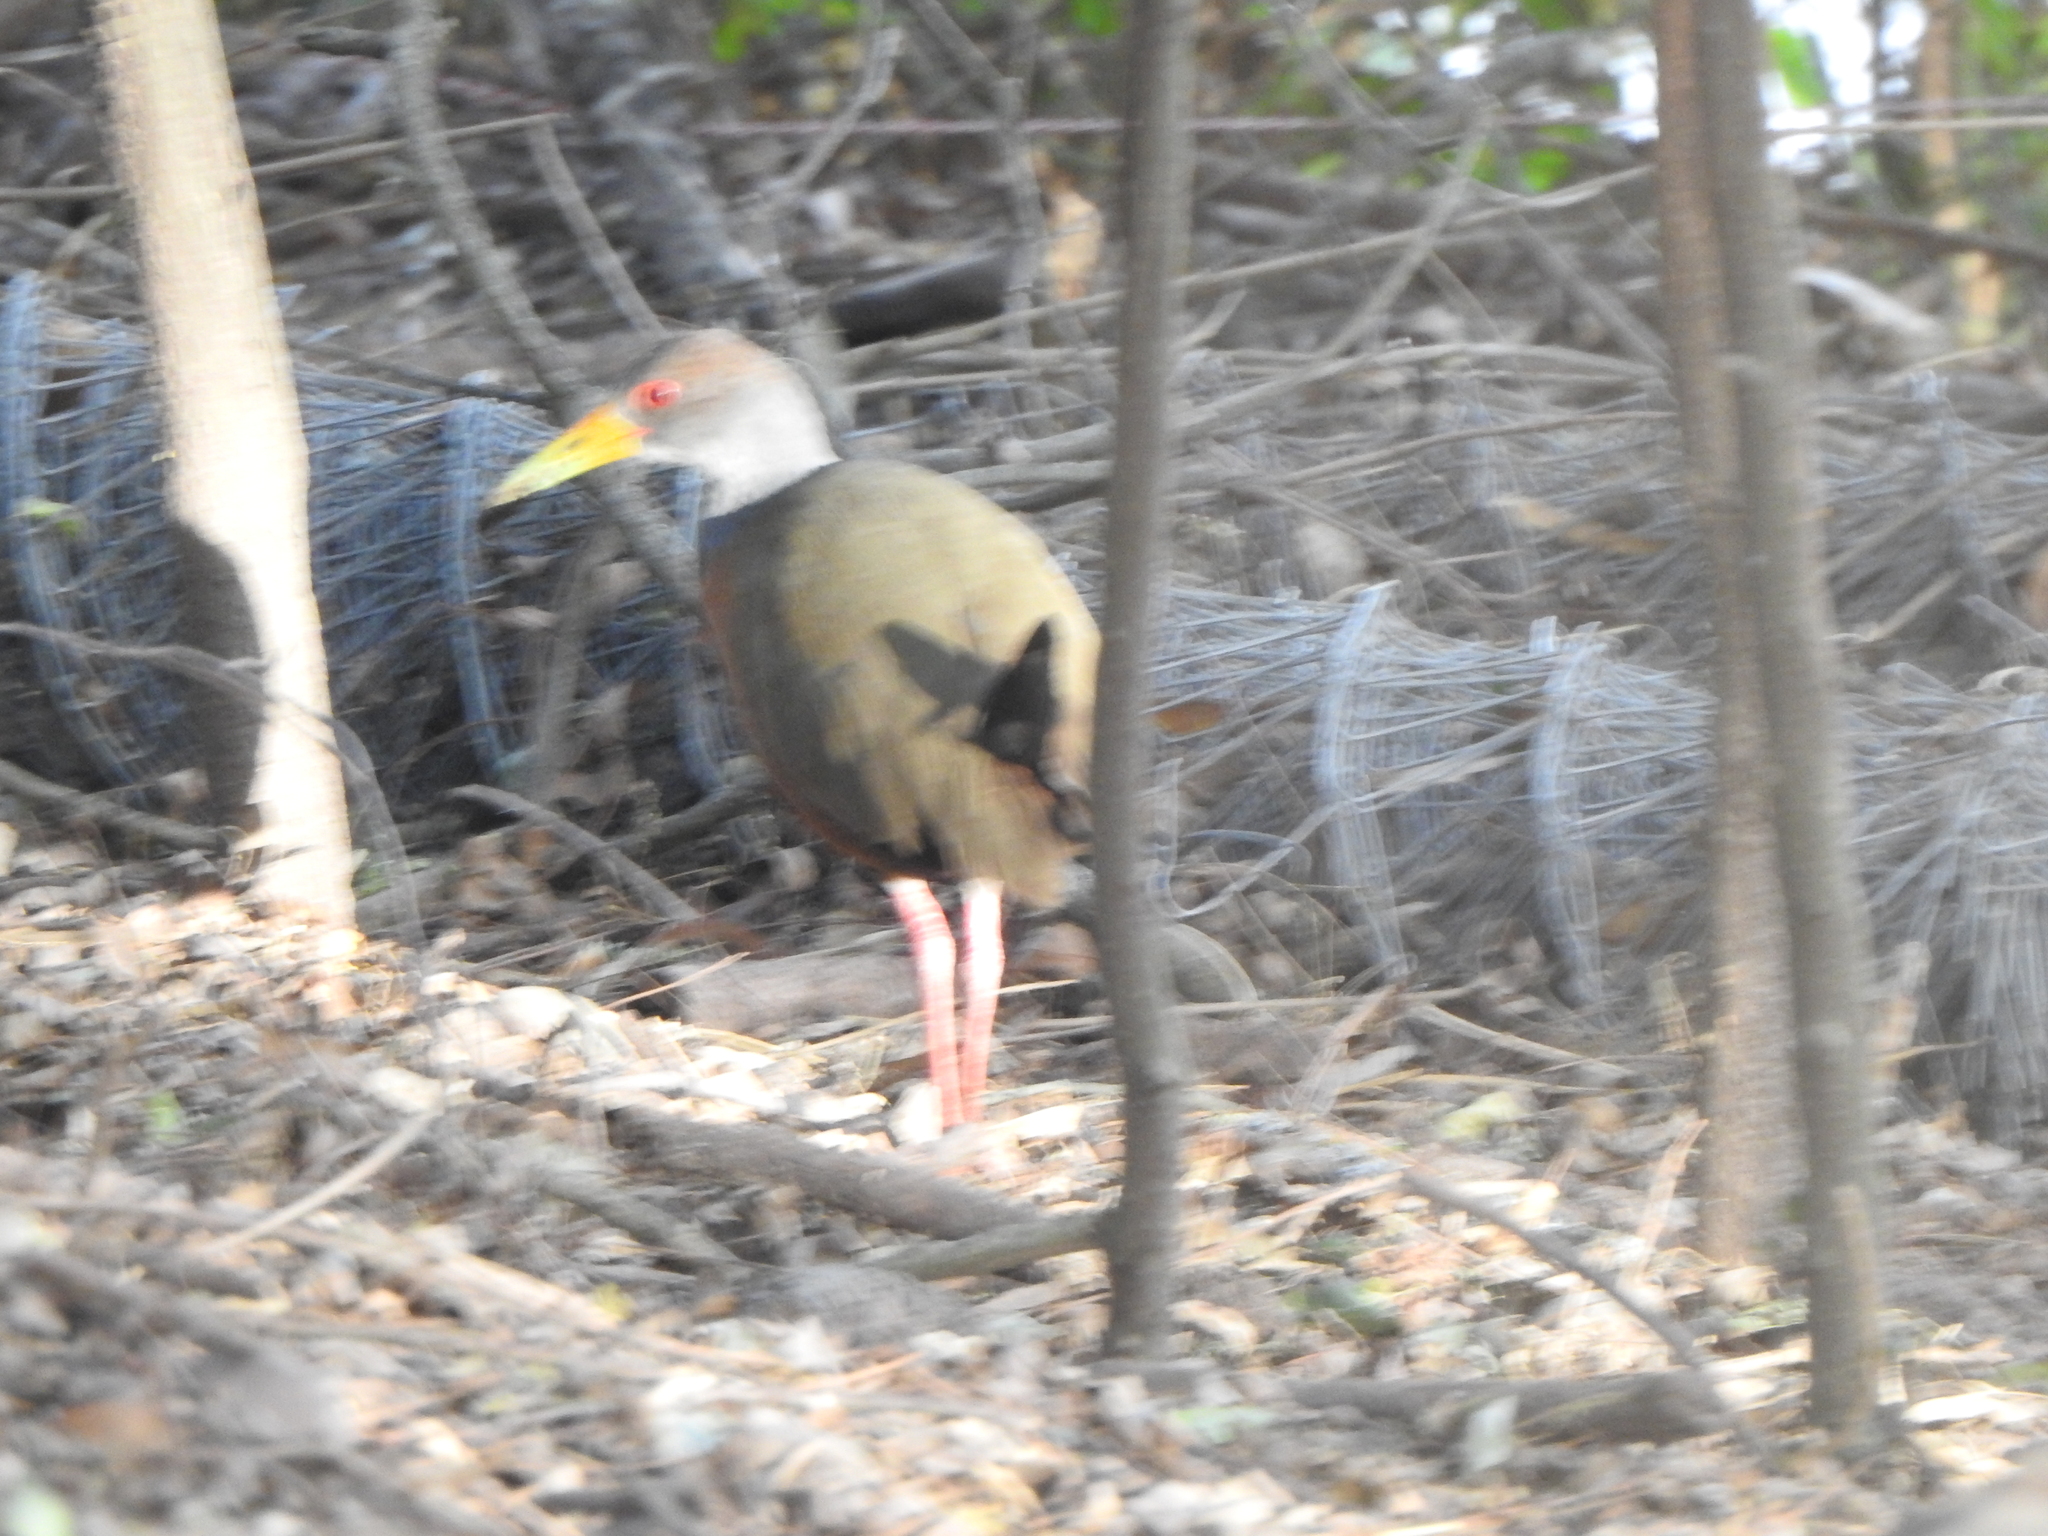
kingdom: Animalia
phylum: Chordata
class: Aves
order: Gruiformes
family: Rallidae
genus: Aramides
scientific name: Aramides cajanea
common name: Gray-necked wood-rail
